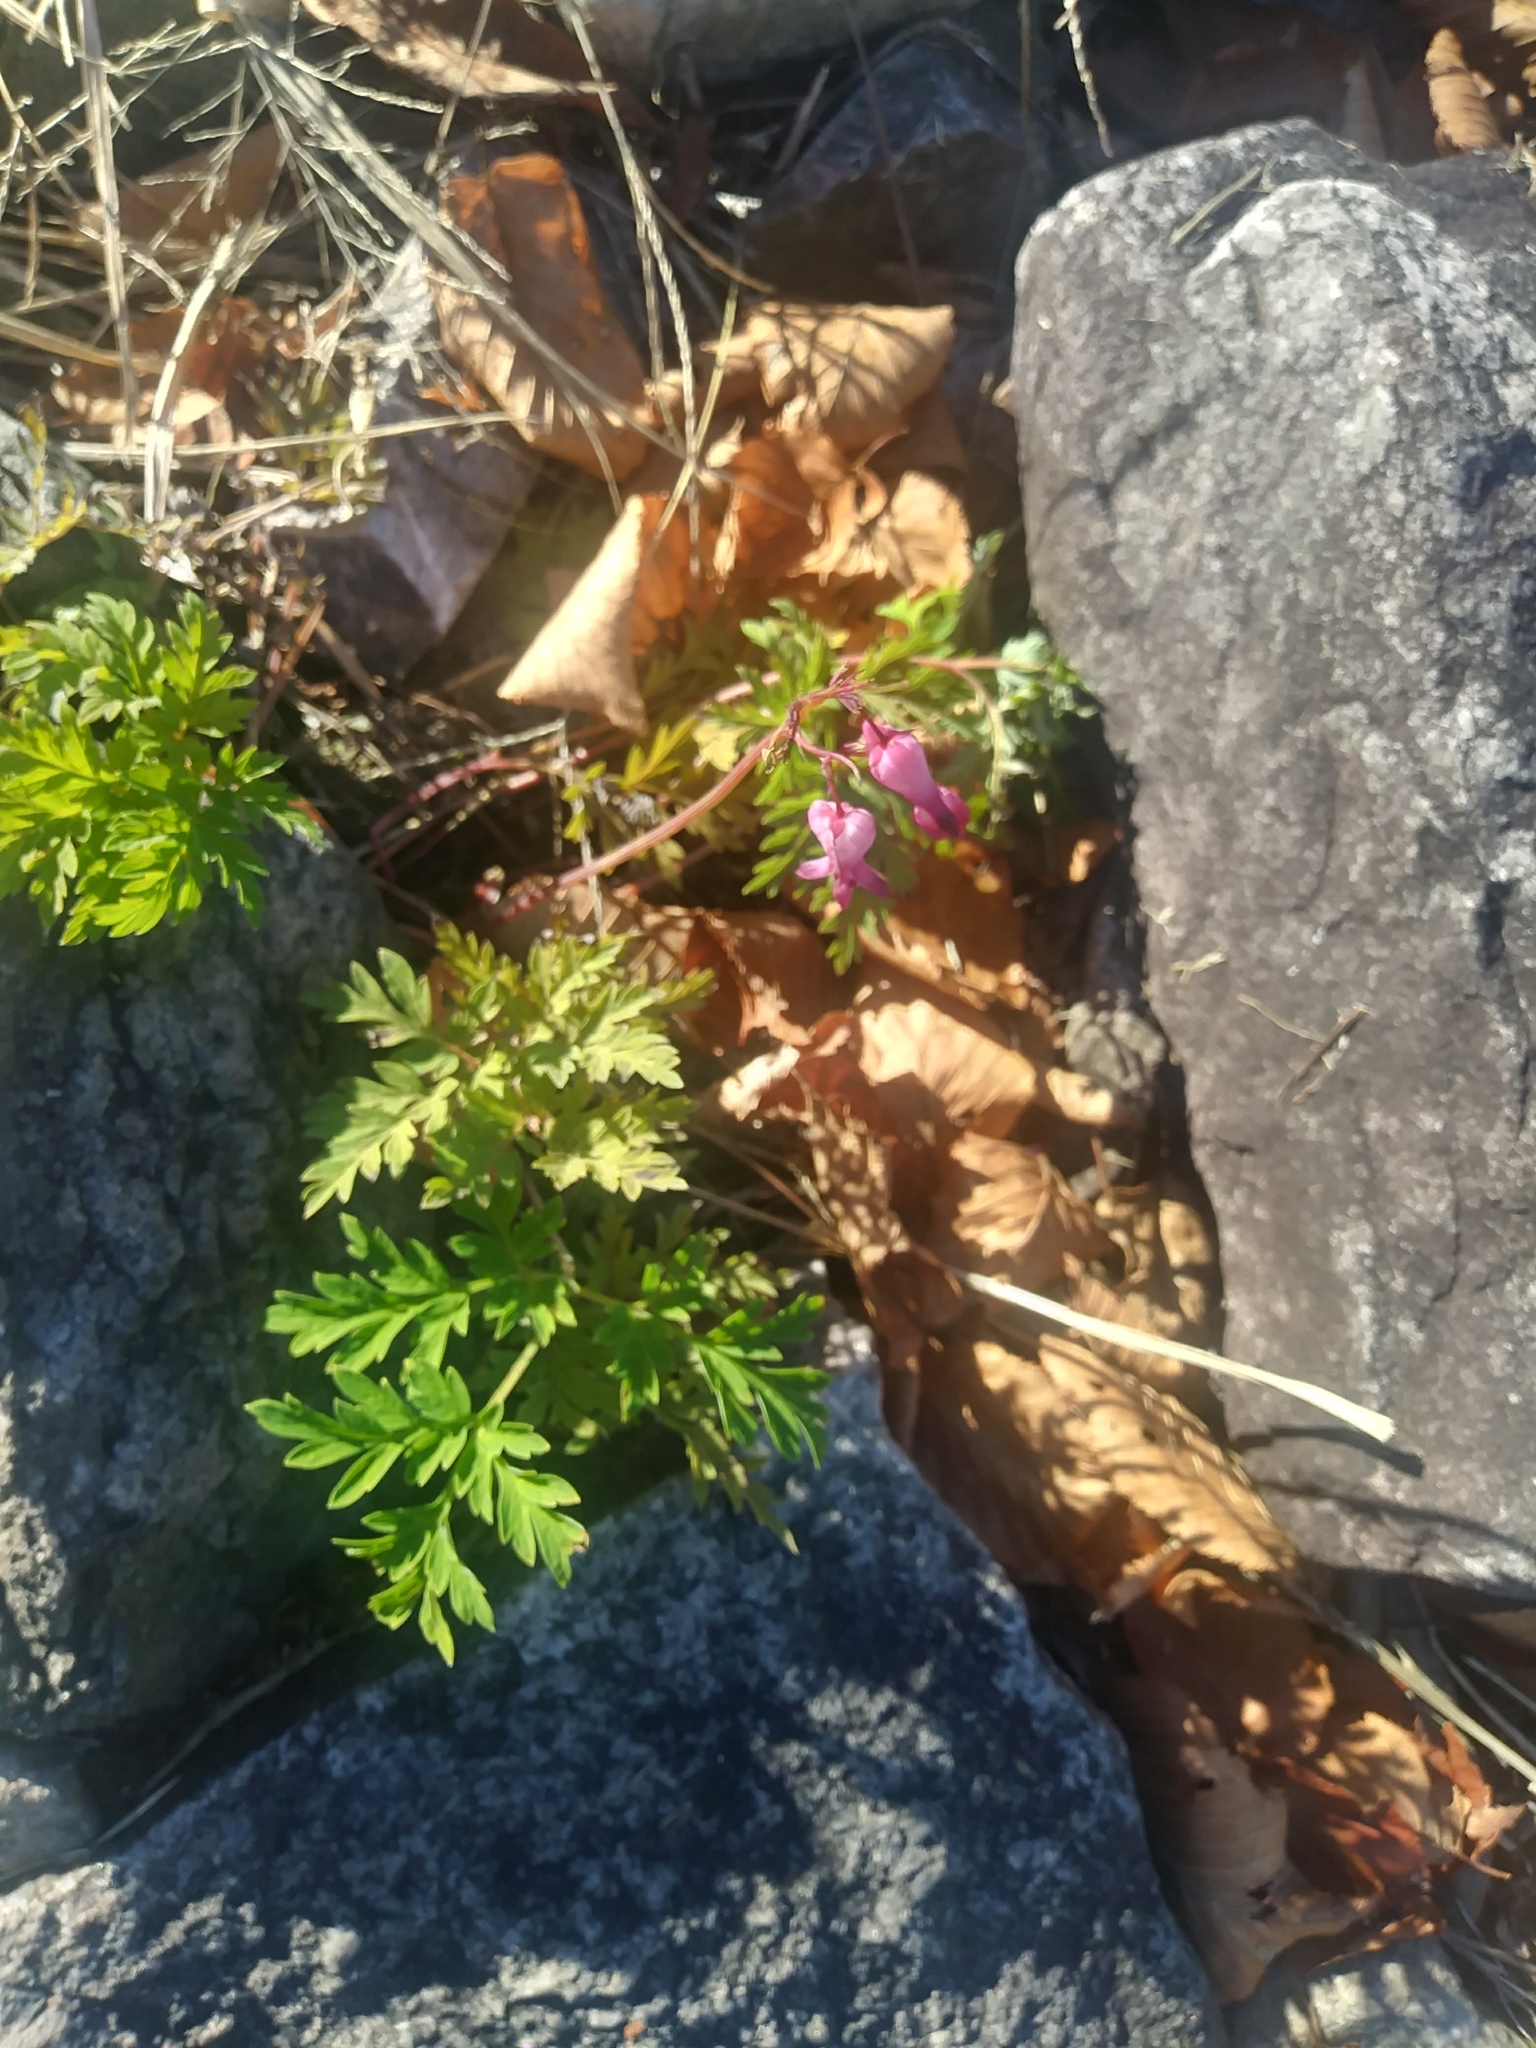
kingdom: Plantae
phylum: Tracheophyta
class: Magnoliopsida
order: Ranunculales
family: Papaveraceae
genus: Dicentra
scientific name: Dicentra eximia
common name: Turkey-corn
